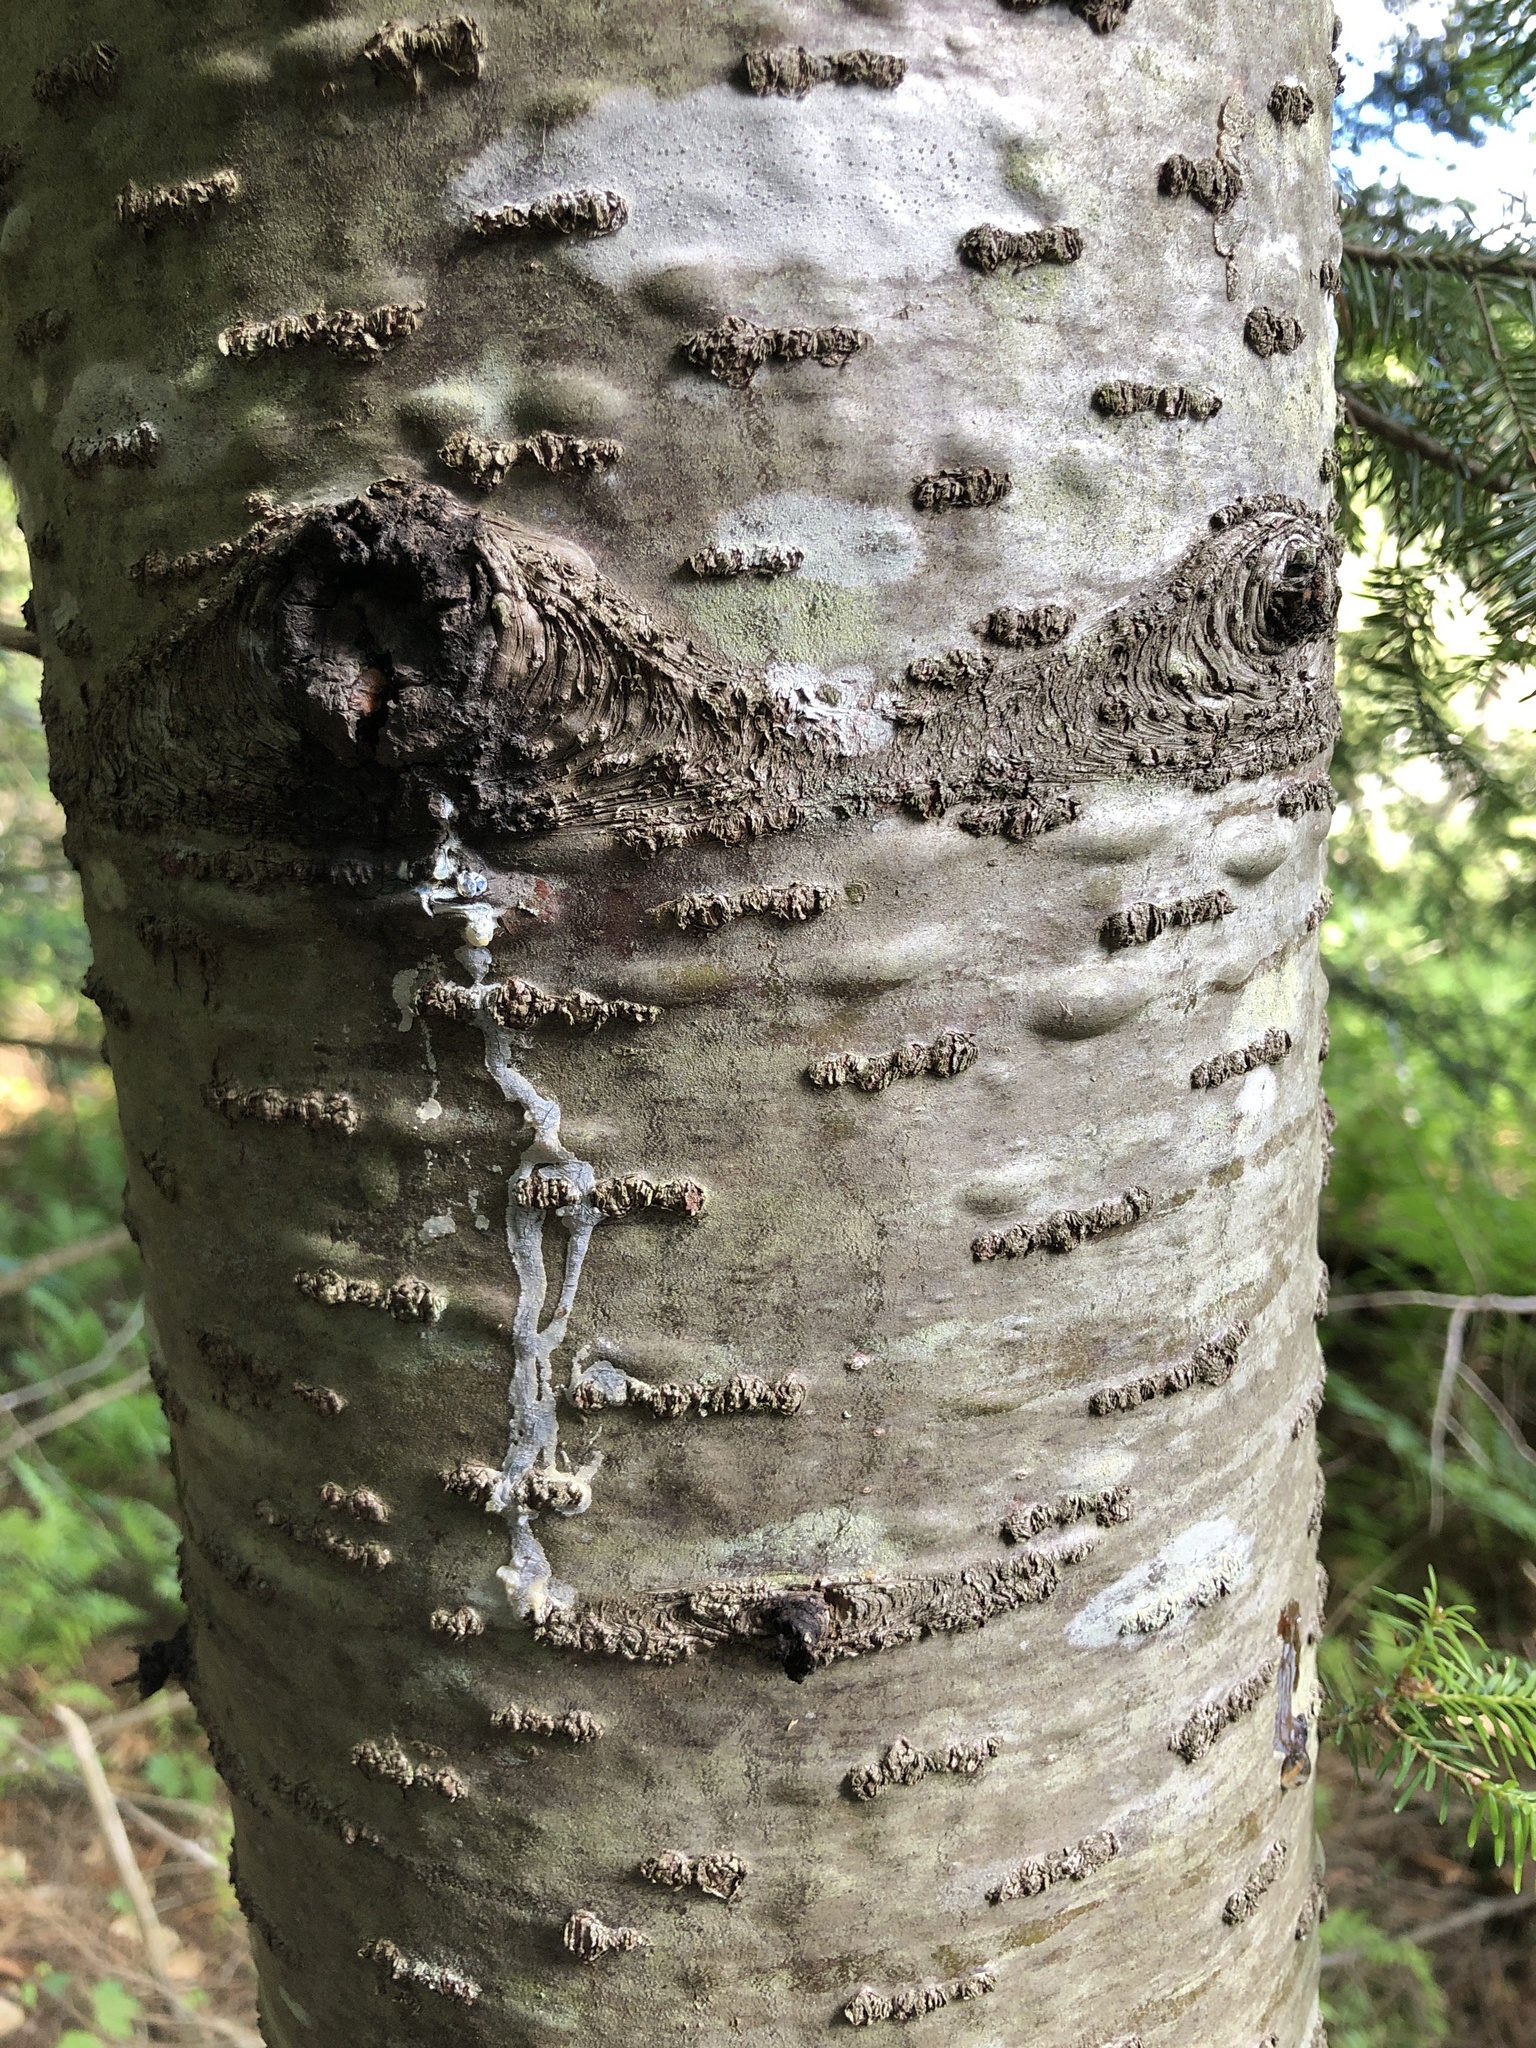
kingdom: Plantae
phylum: Tracheophyta
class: Pinopsida
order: Pinales
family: Pinaceae
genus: Abies
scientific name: Abies balsamea
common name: Balsam fir
